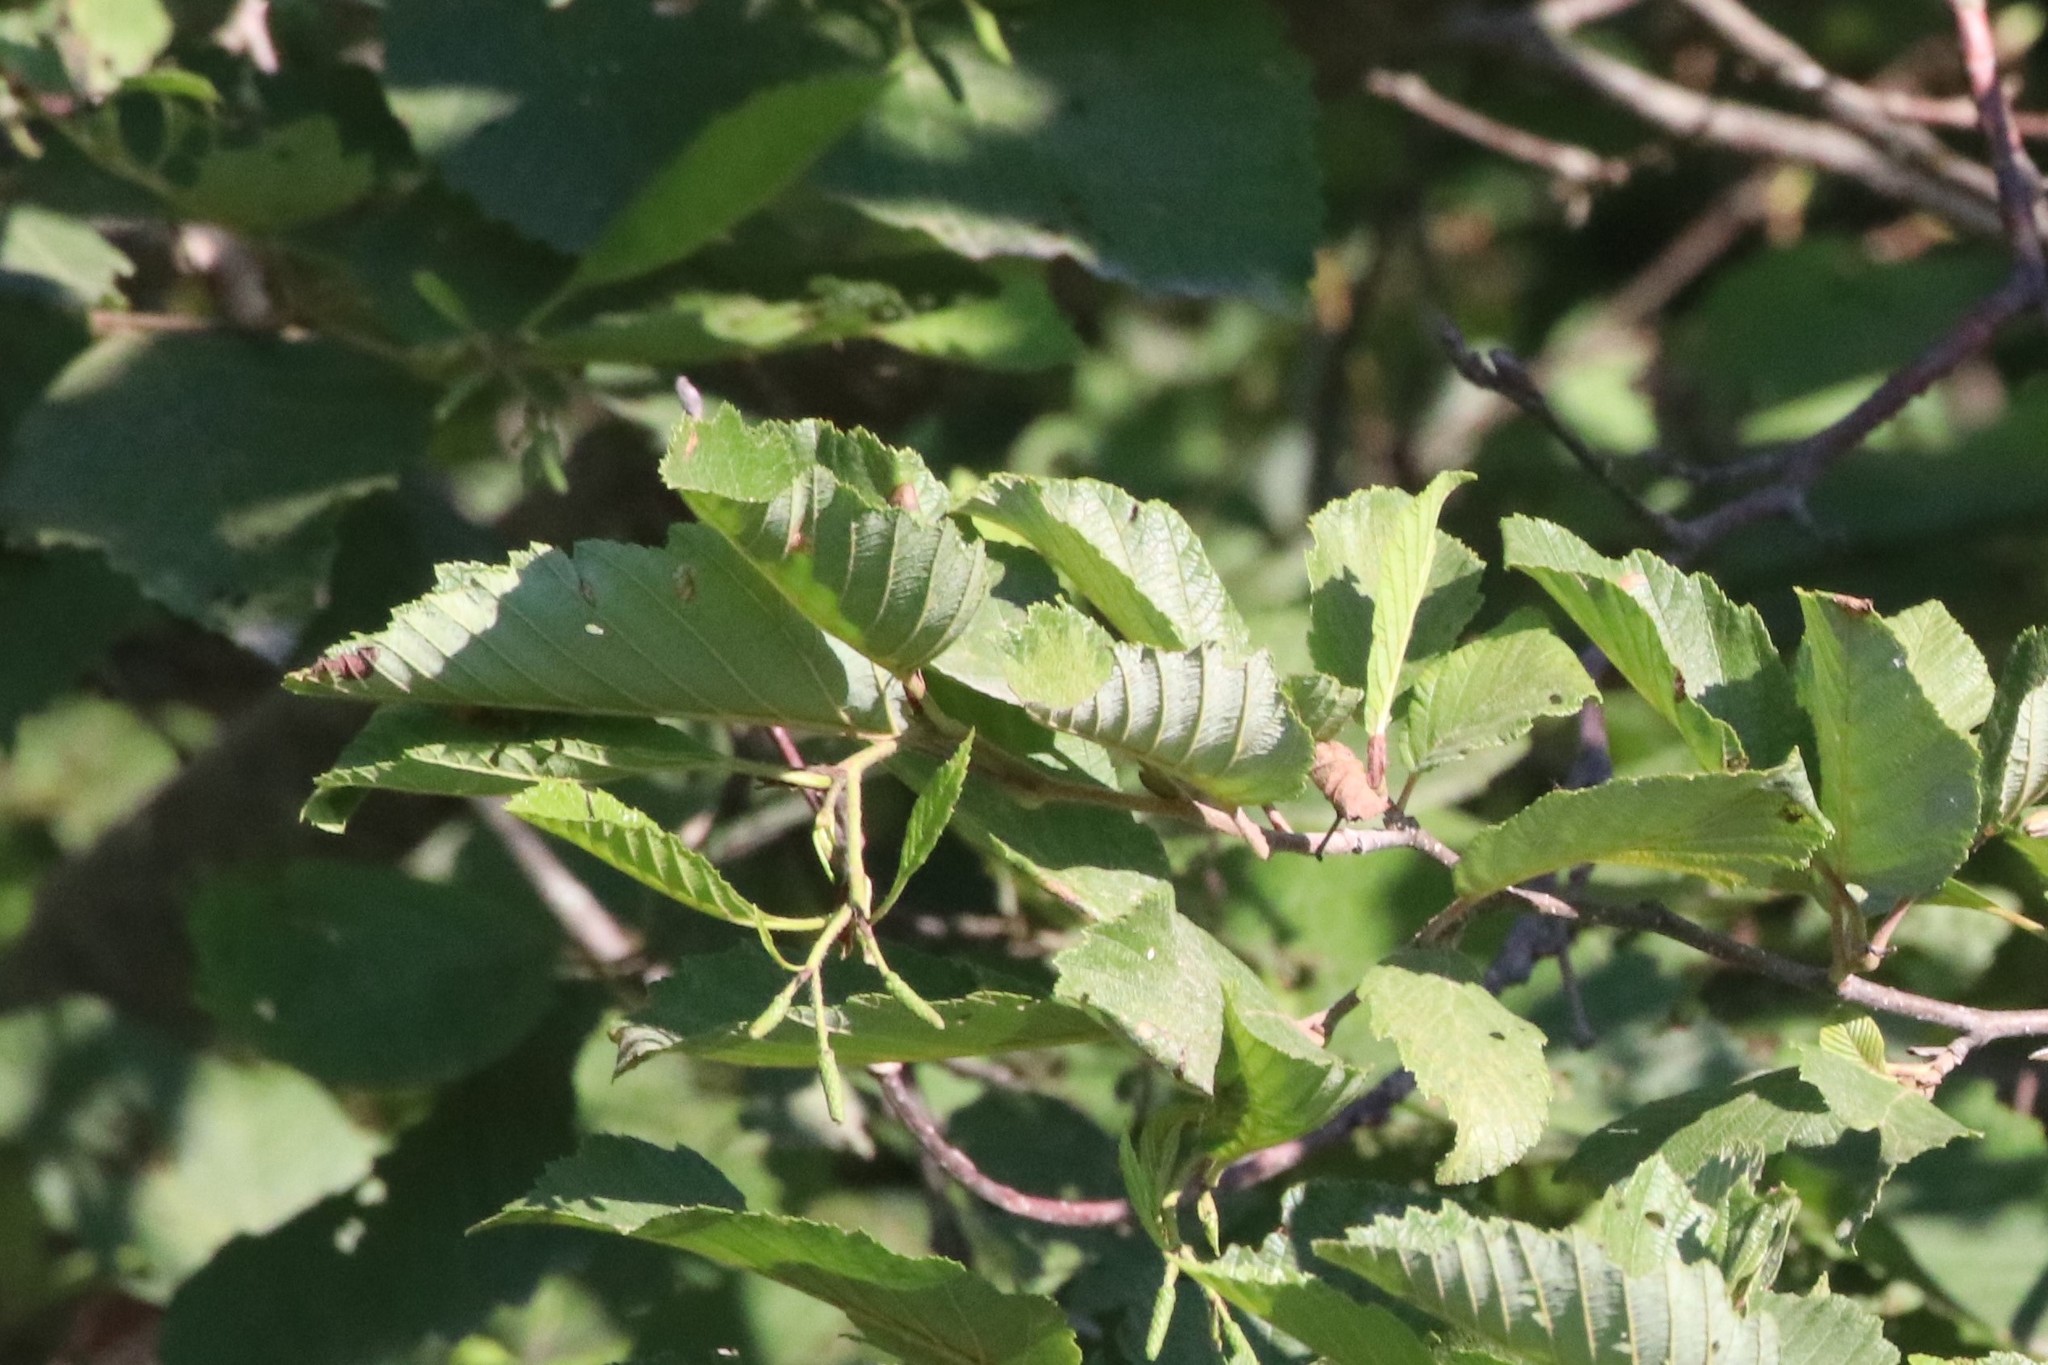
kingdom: Plantae
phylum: Tracheophyta
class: Magnoliopsida
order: Fagales
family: Betulaceae
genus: Alnus
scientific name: Alnus incana
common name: Grey alder
